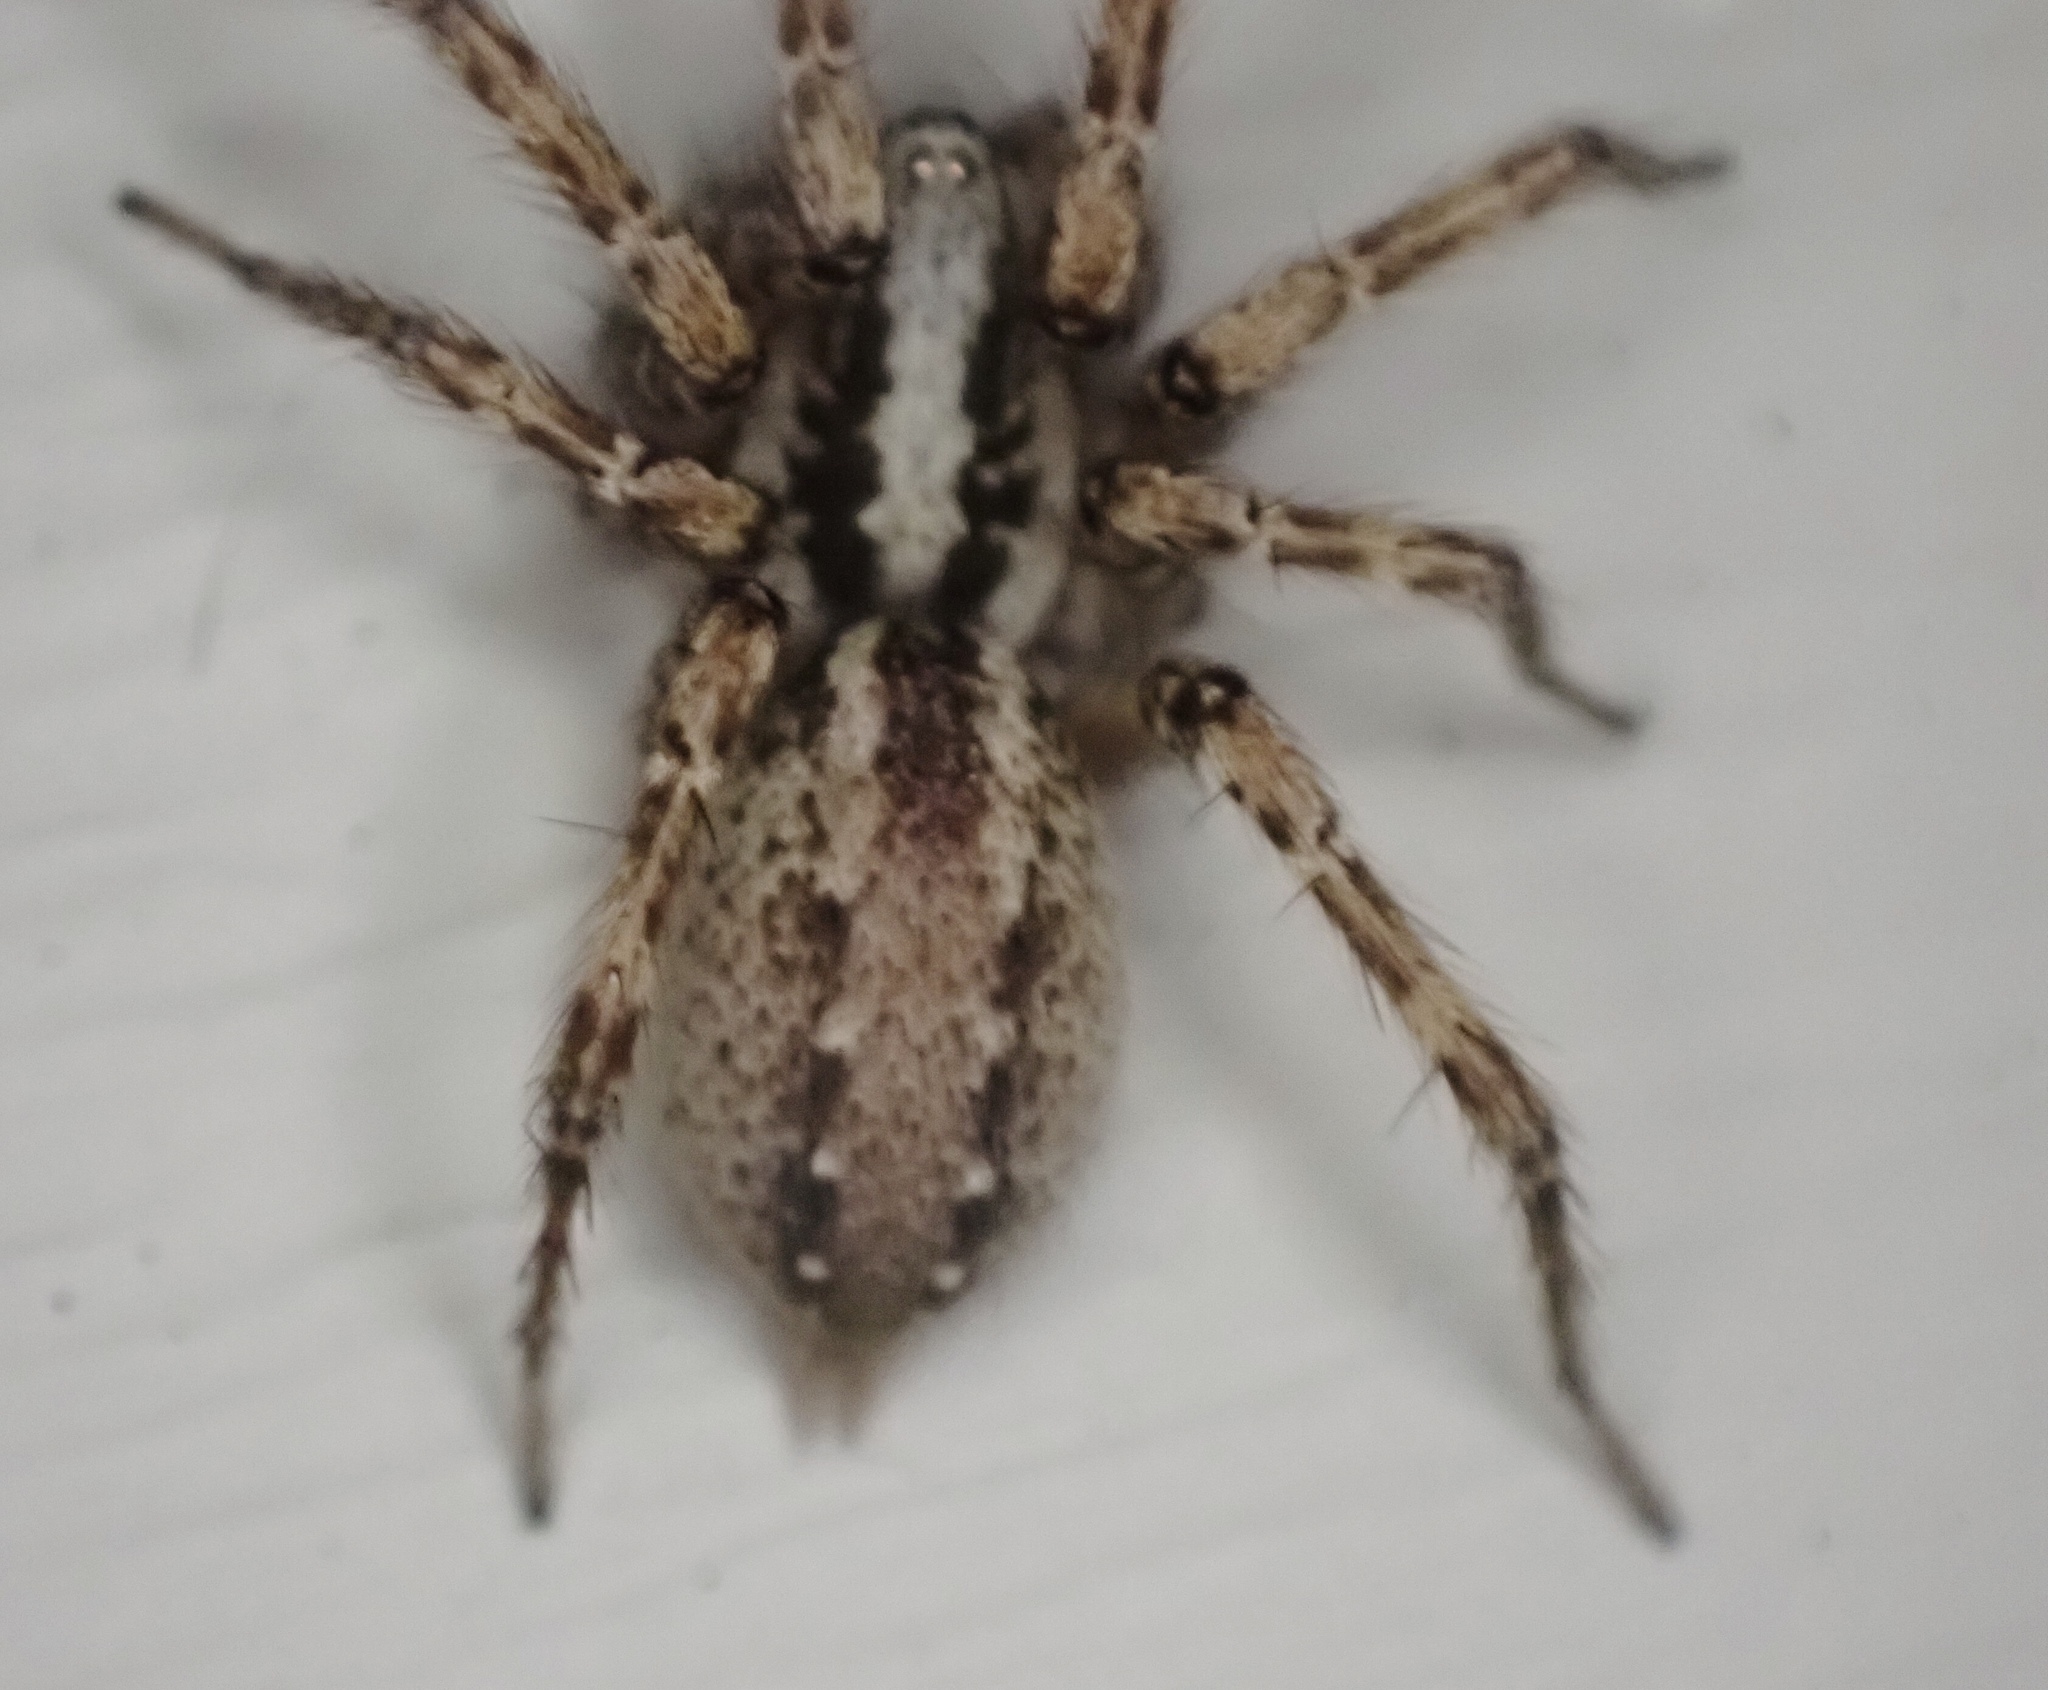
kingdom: Animalia
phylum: Arthropoda
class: Arachnida
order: Araneae
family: Agelenidae
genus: Barronopsis
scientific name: Barronopsis texana
